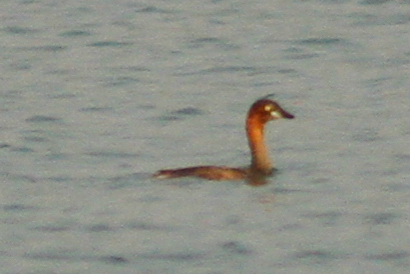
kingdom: Animalia
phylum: Chordata
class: Aves
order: Podicipediformes
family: Podicipedidae
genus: Tachybaptus
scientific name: Tachybaptus ruficollis
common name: Little grebe
